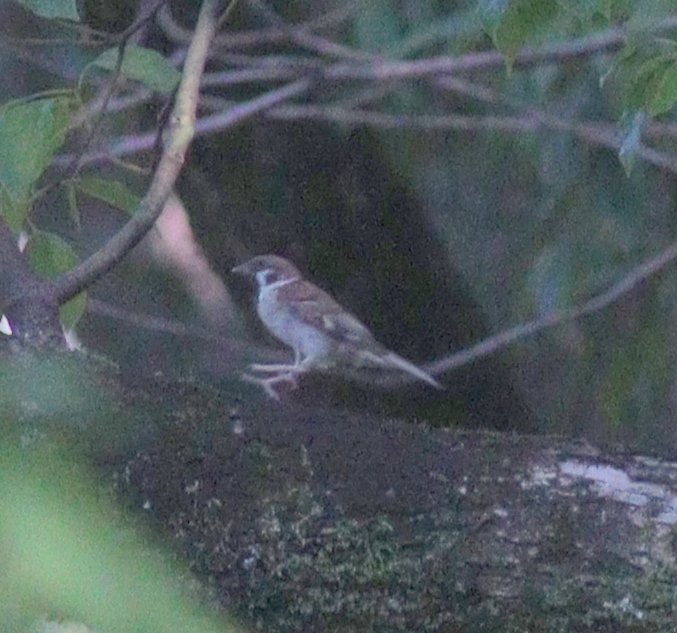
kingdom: Animalia
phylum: Chordata
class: Aves
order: Passeriformes
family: Passeridae
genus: Passer
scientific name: Passer montanus
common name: Eurasian tree sparrow
